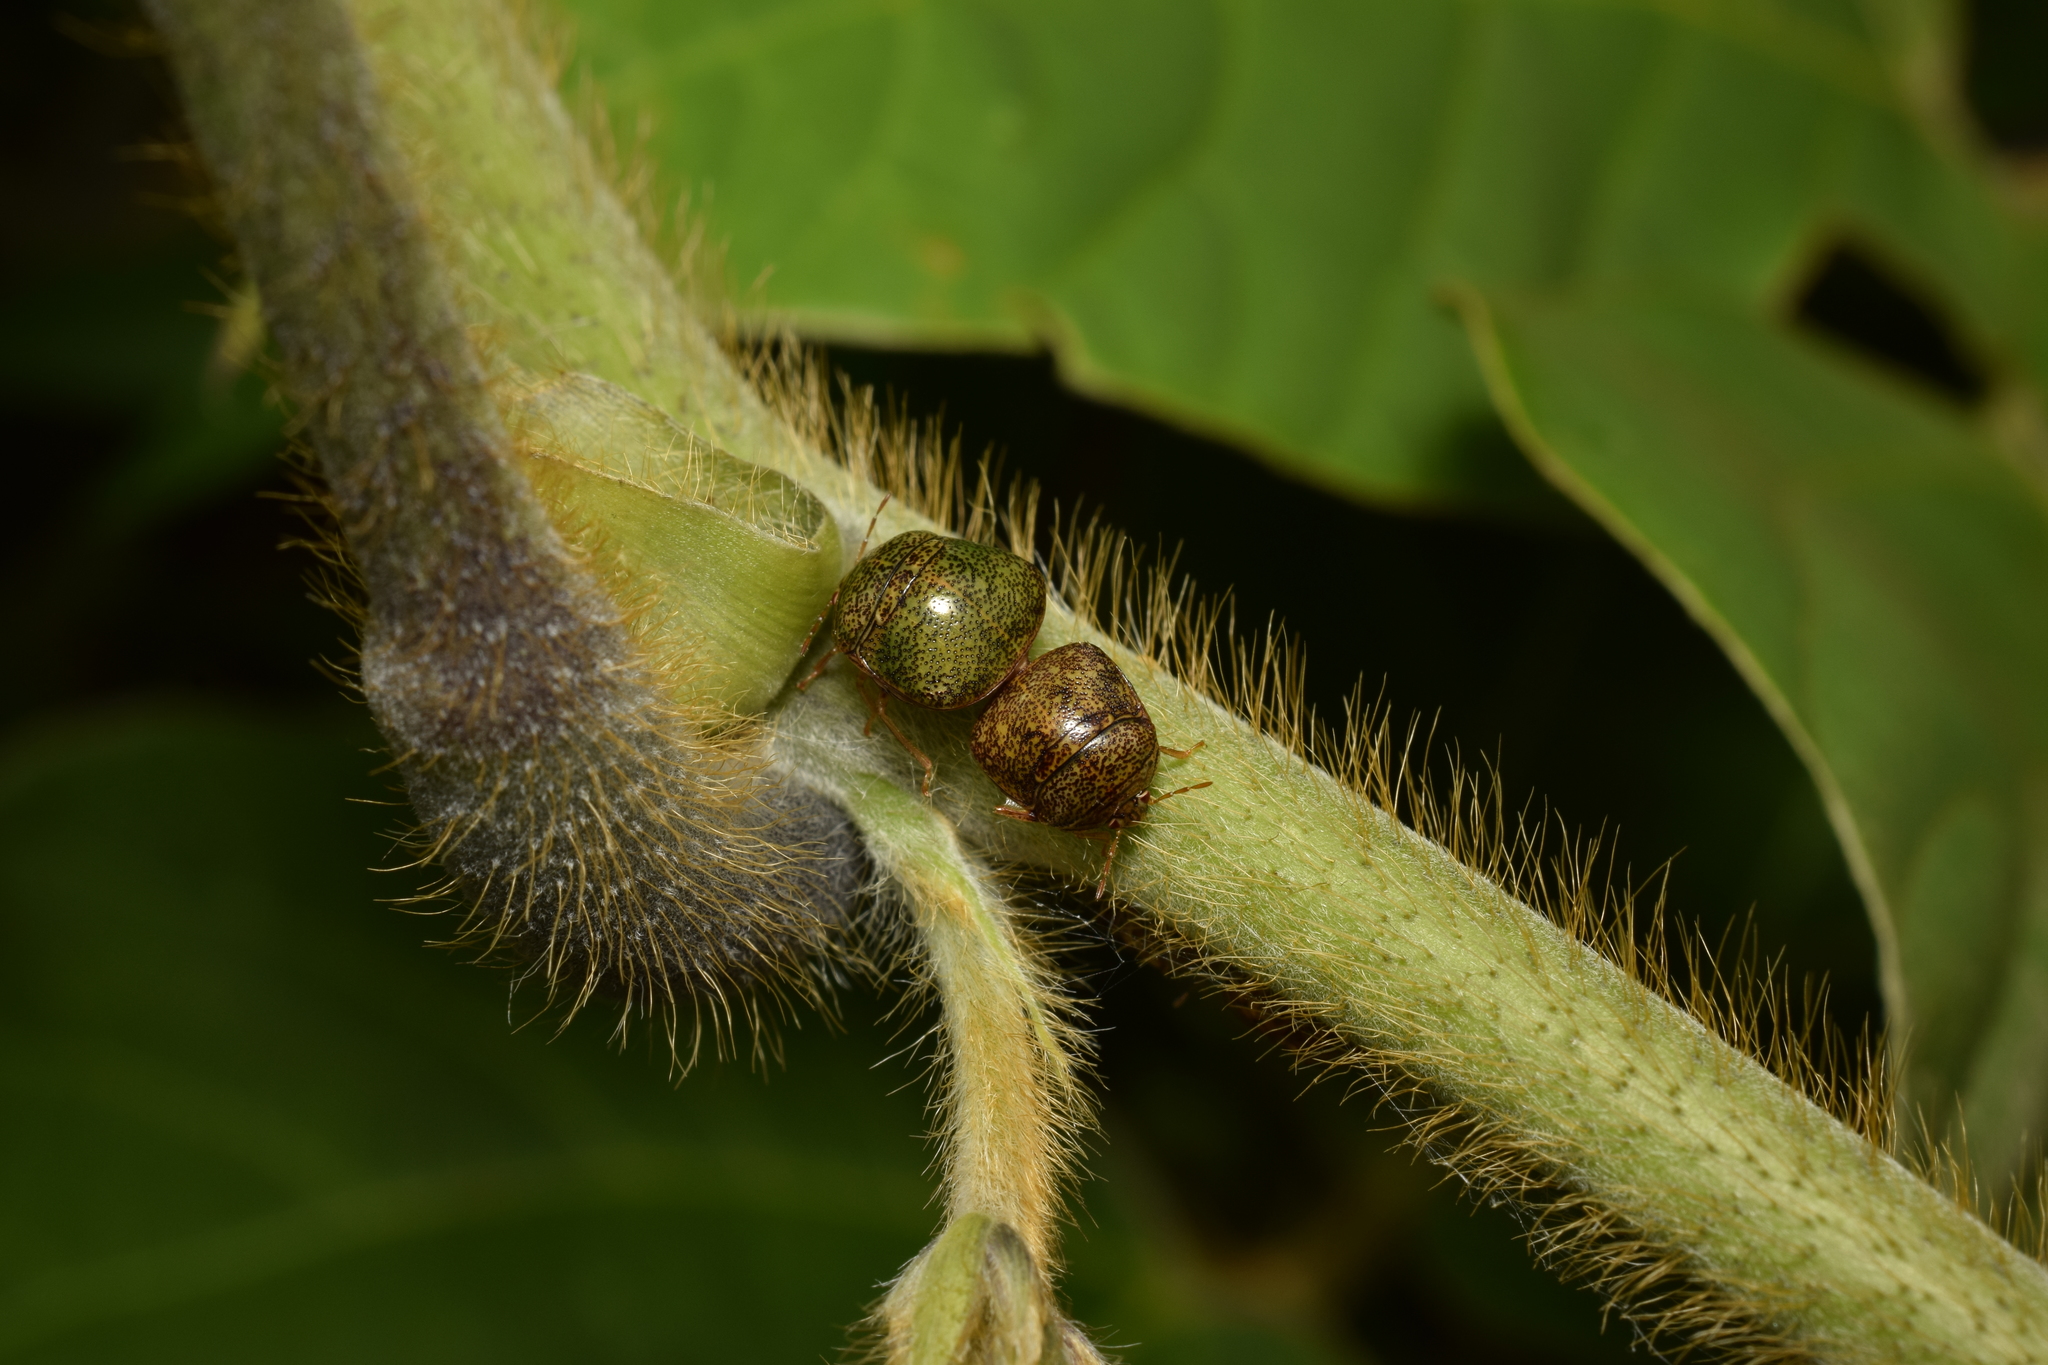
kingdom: Animalia
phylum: Arthropoda
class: Insecta
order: Hemiptera
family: Plataspidae
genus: Megacopta
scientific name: Megacopta punctatissima
